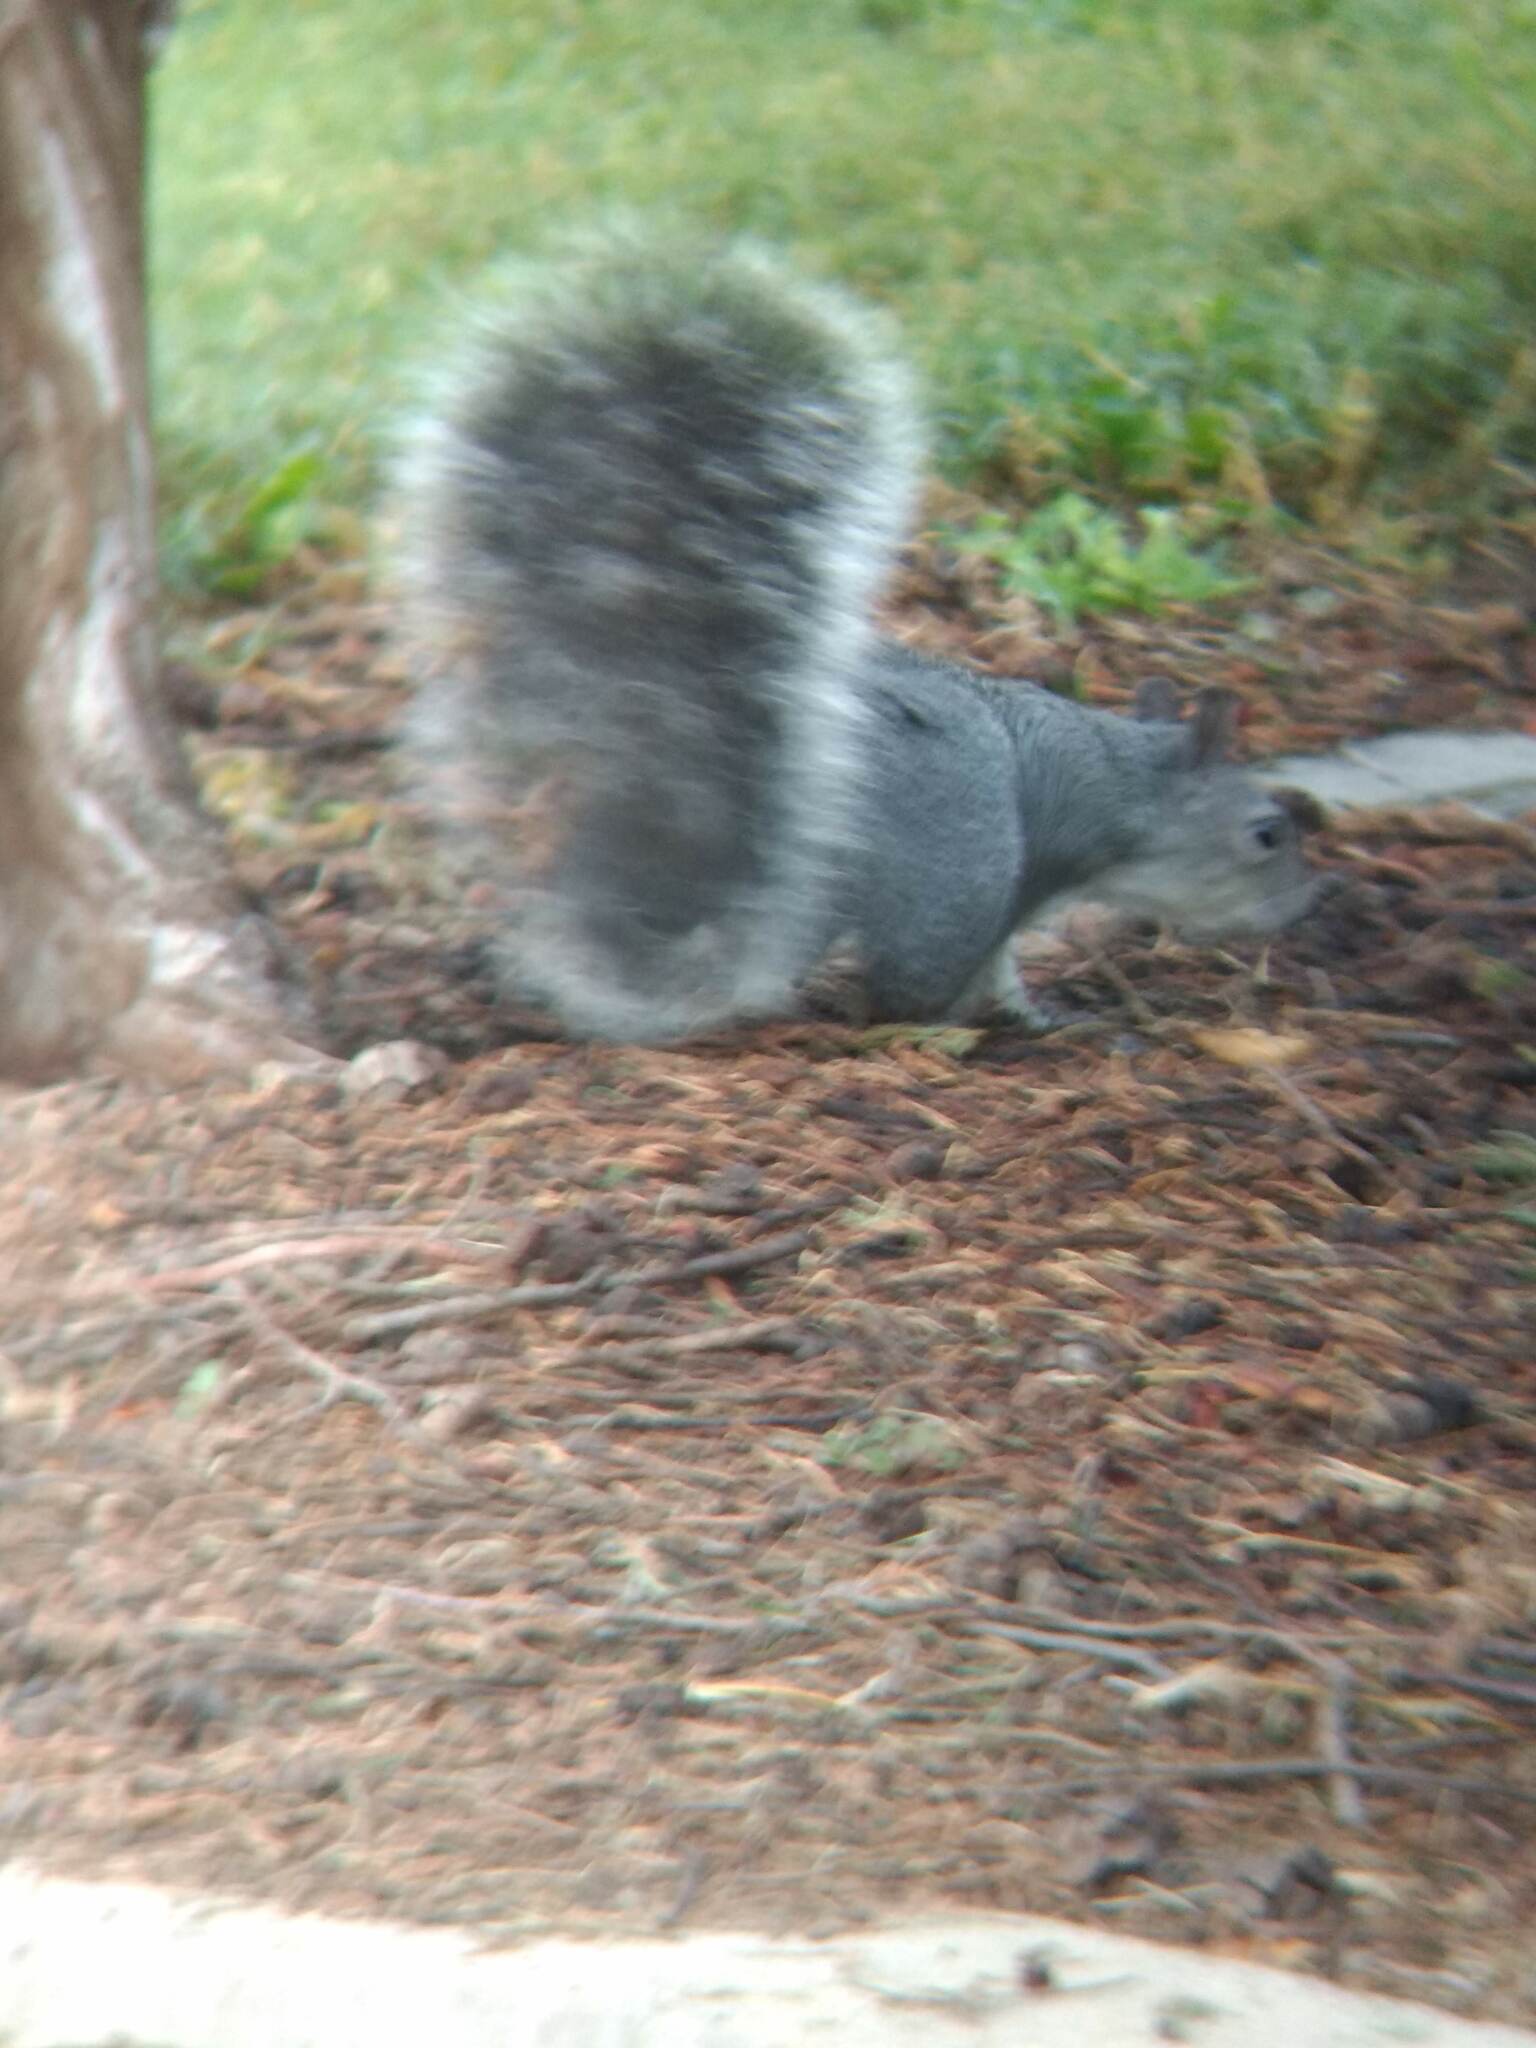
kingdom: Animalia
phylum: Chordata
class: Mammalia
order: Rodentia
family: Sciuridae
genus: Sciurus
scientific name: Sciurus griseus
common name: Western gray squirrel
